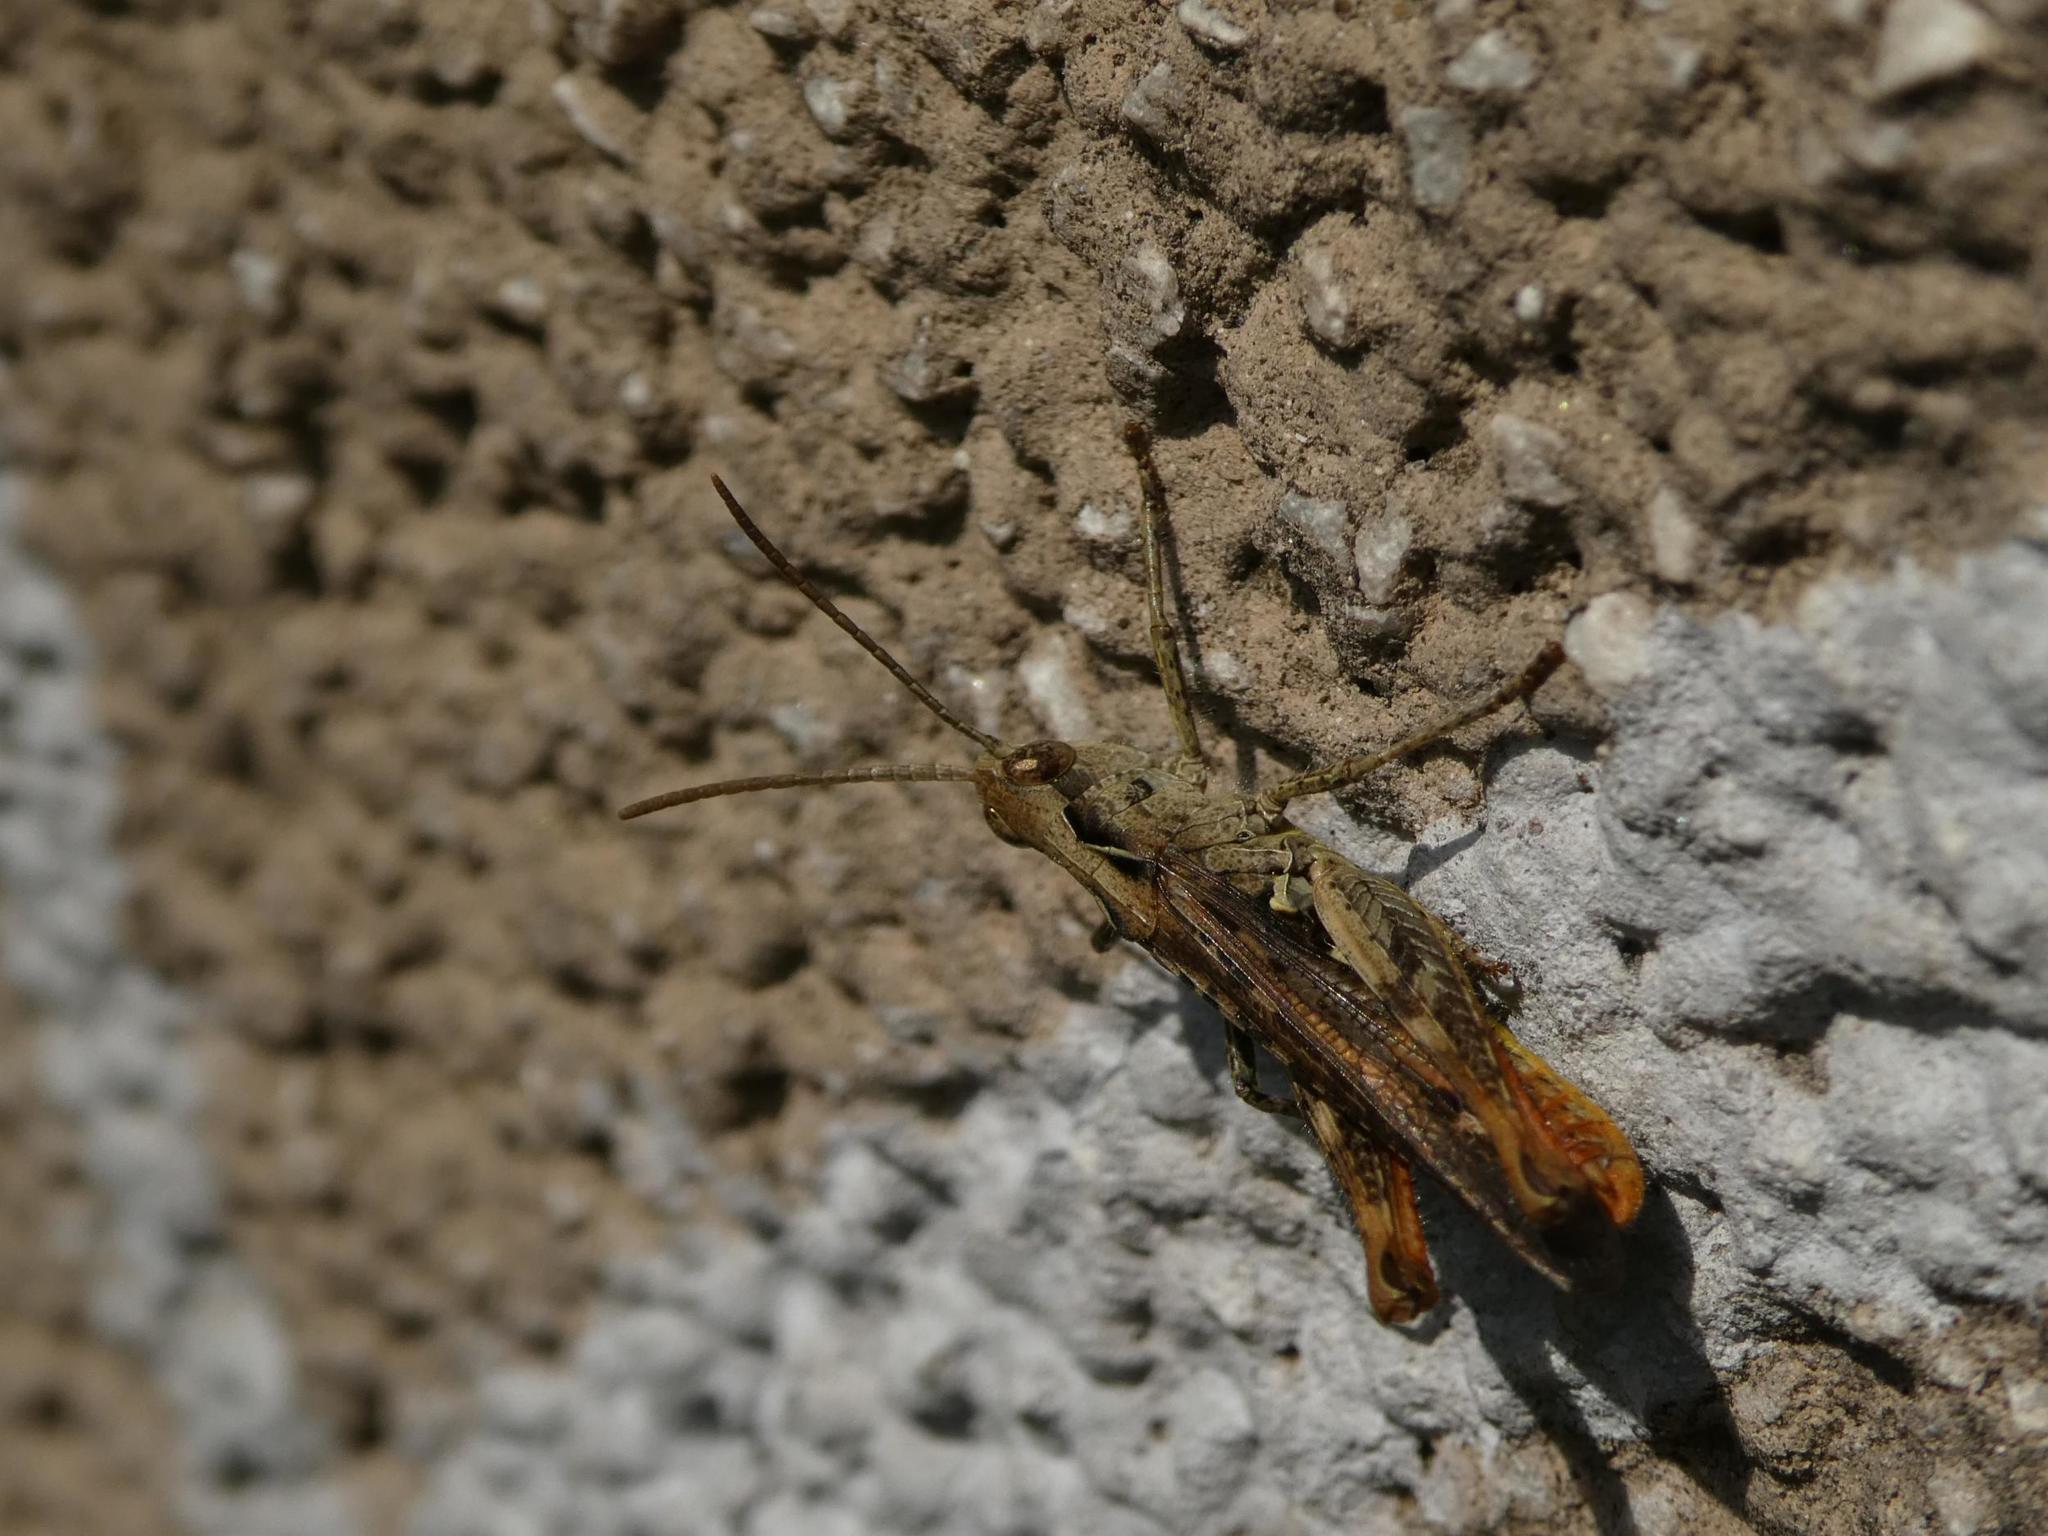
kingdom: Animalia
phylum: Arthropoda
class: Insecta
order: Orthoptera
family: Acrididae
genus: Chorthippus
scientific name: Chorthippus brunneus
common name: Field grasshopper
